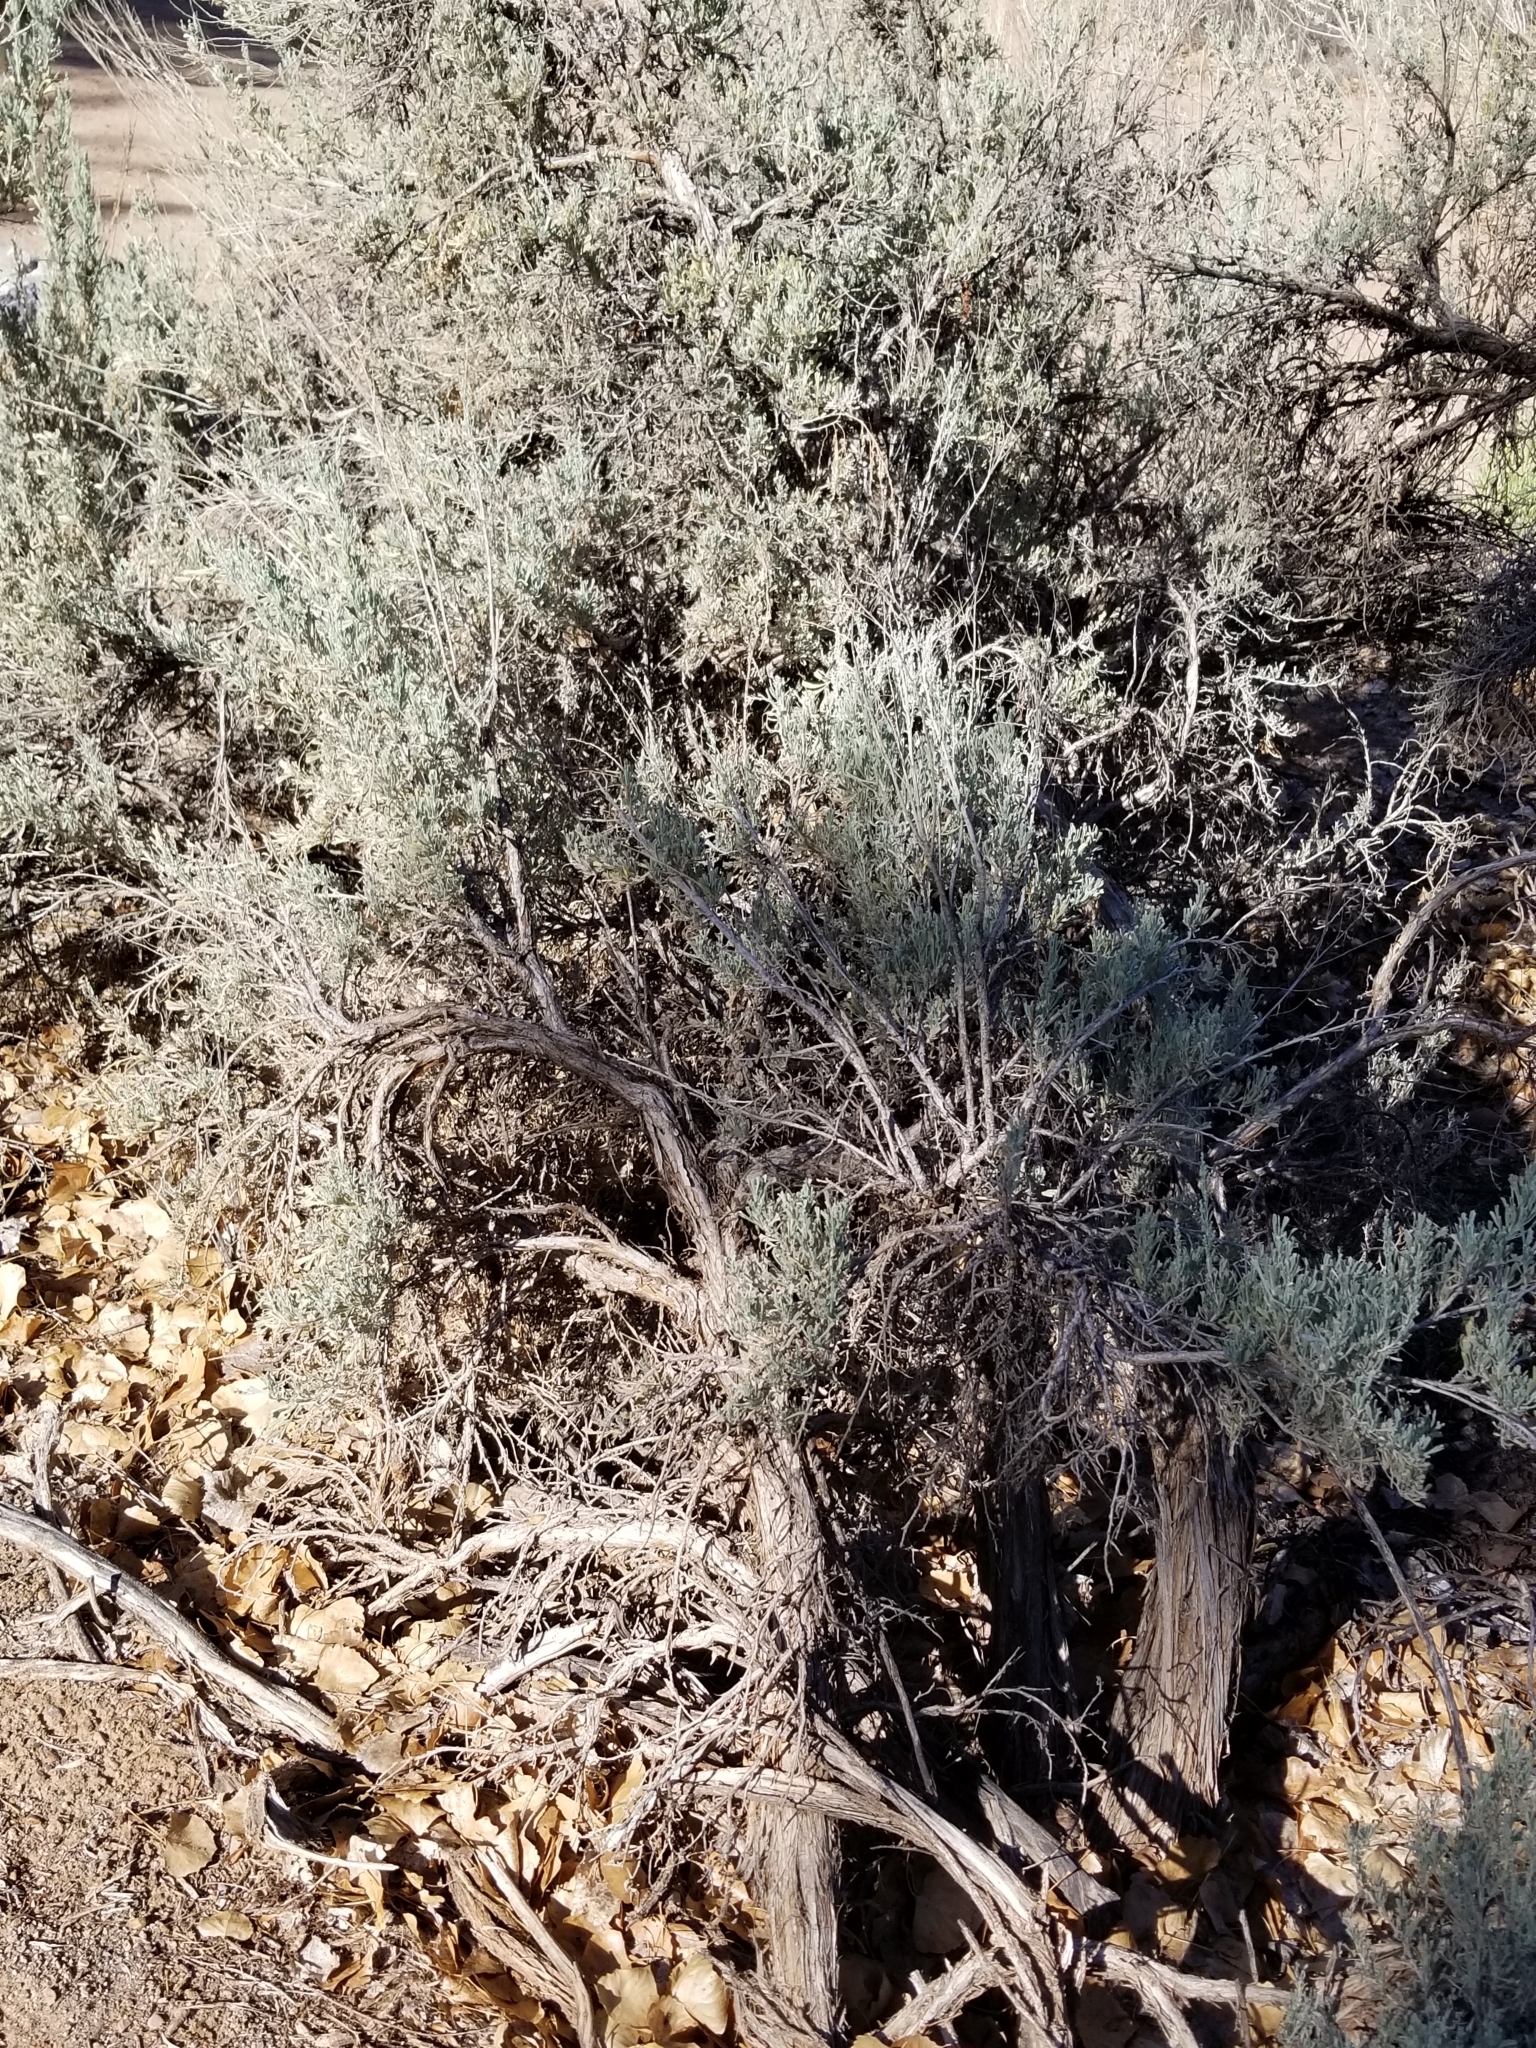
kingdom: Plantae
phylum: Tracheophyta
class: Magnoliopsida
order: Asterales
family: Asteraceae
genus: Artemisia
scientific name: Artemisia tridentata
